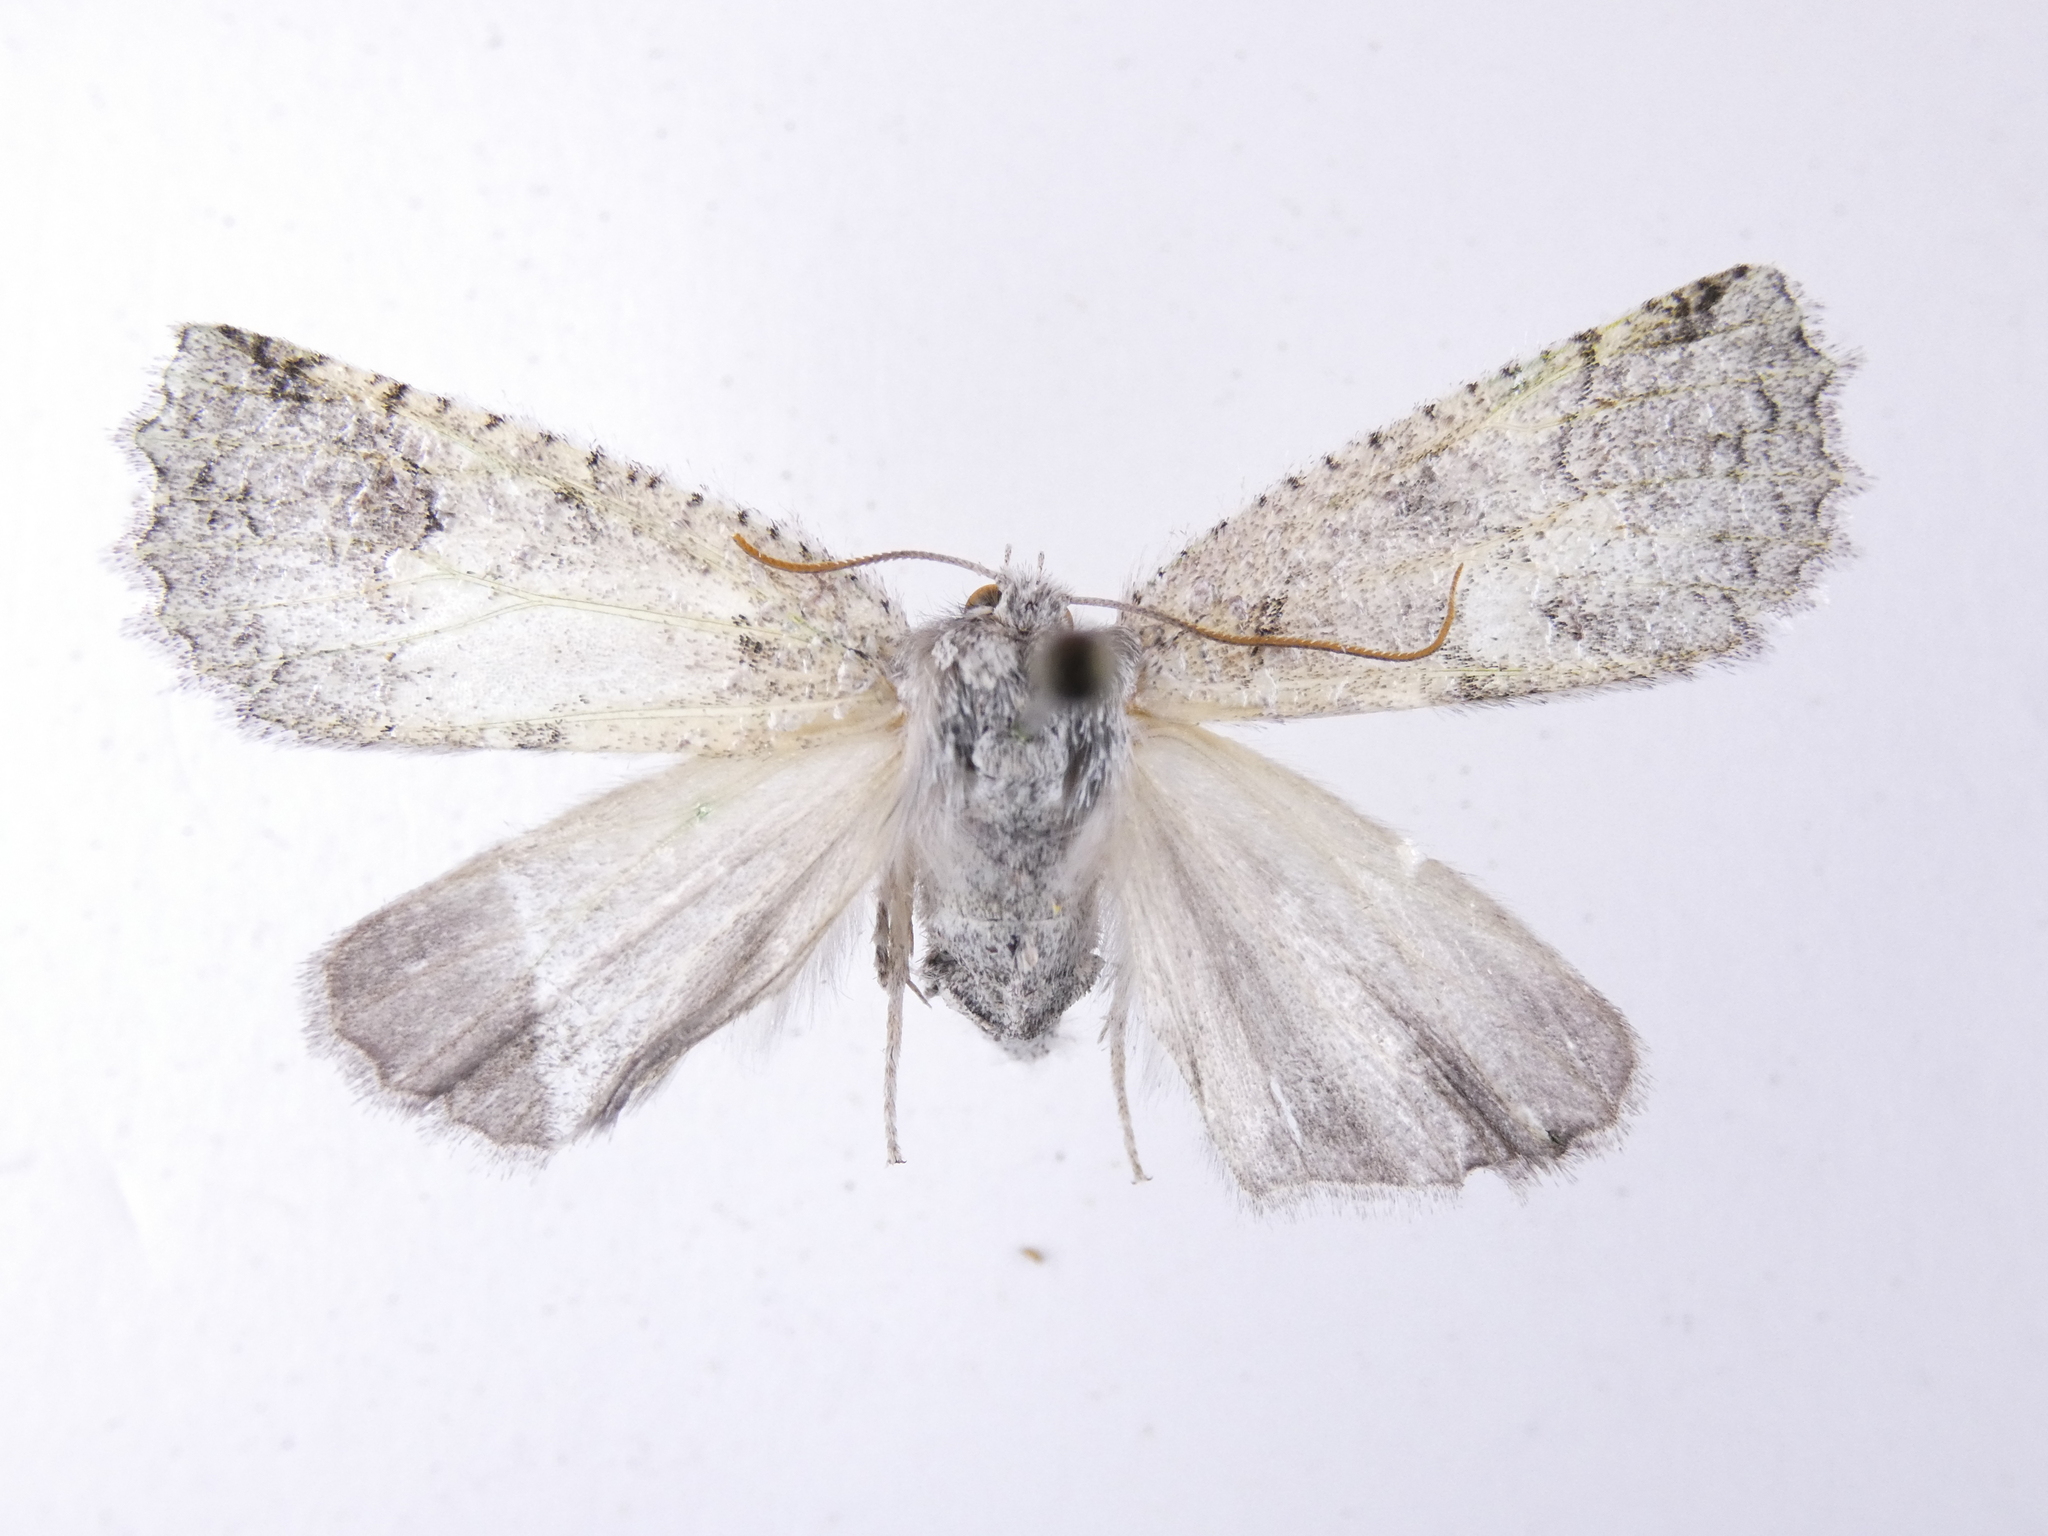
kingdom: Animalia
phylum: Arthropoda
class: Insecta
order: Lepidoptera
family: Geometridae
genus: Declana
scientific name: Declana floccosa
